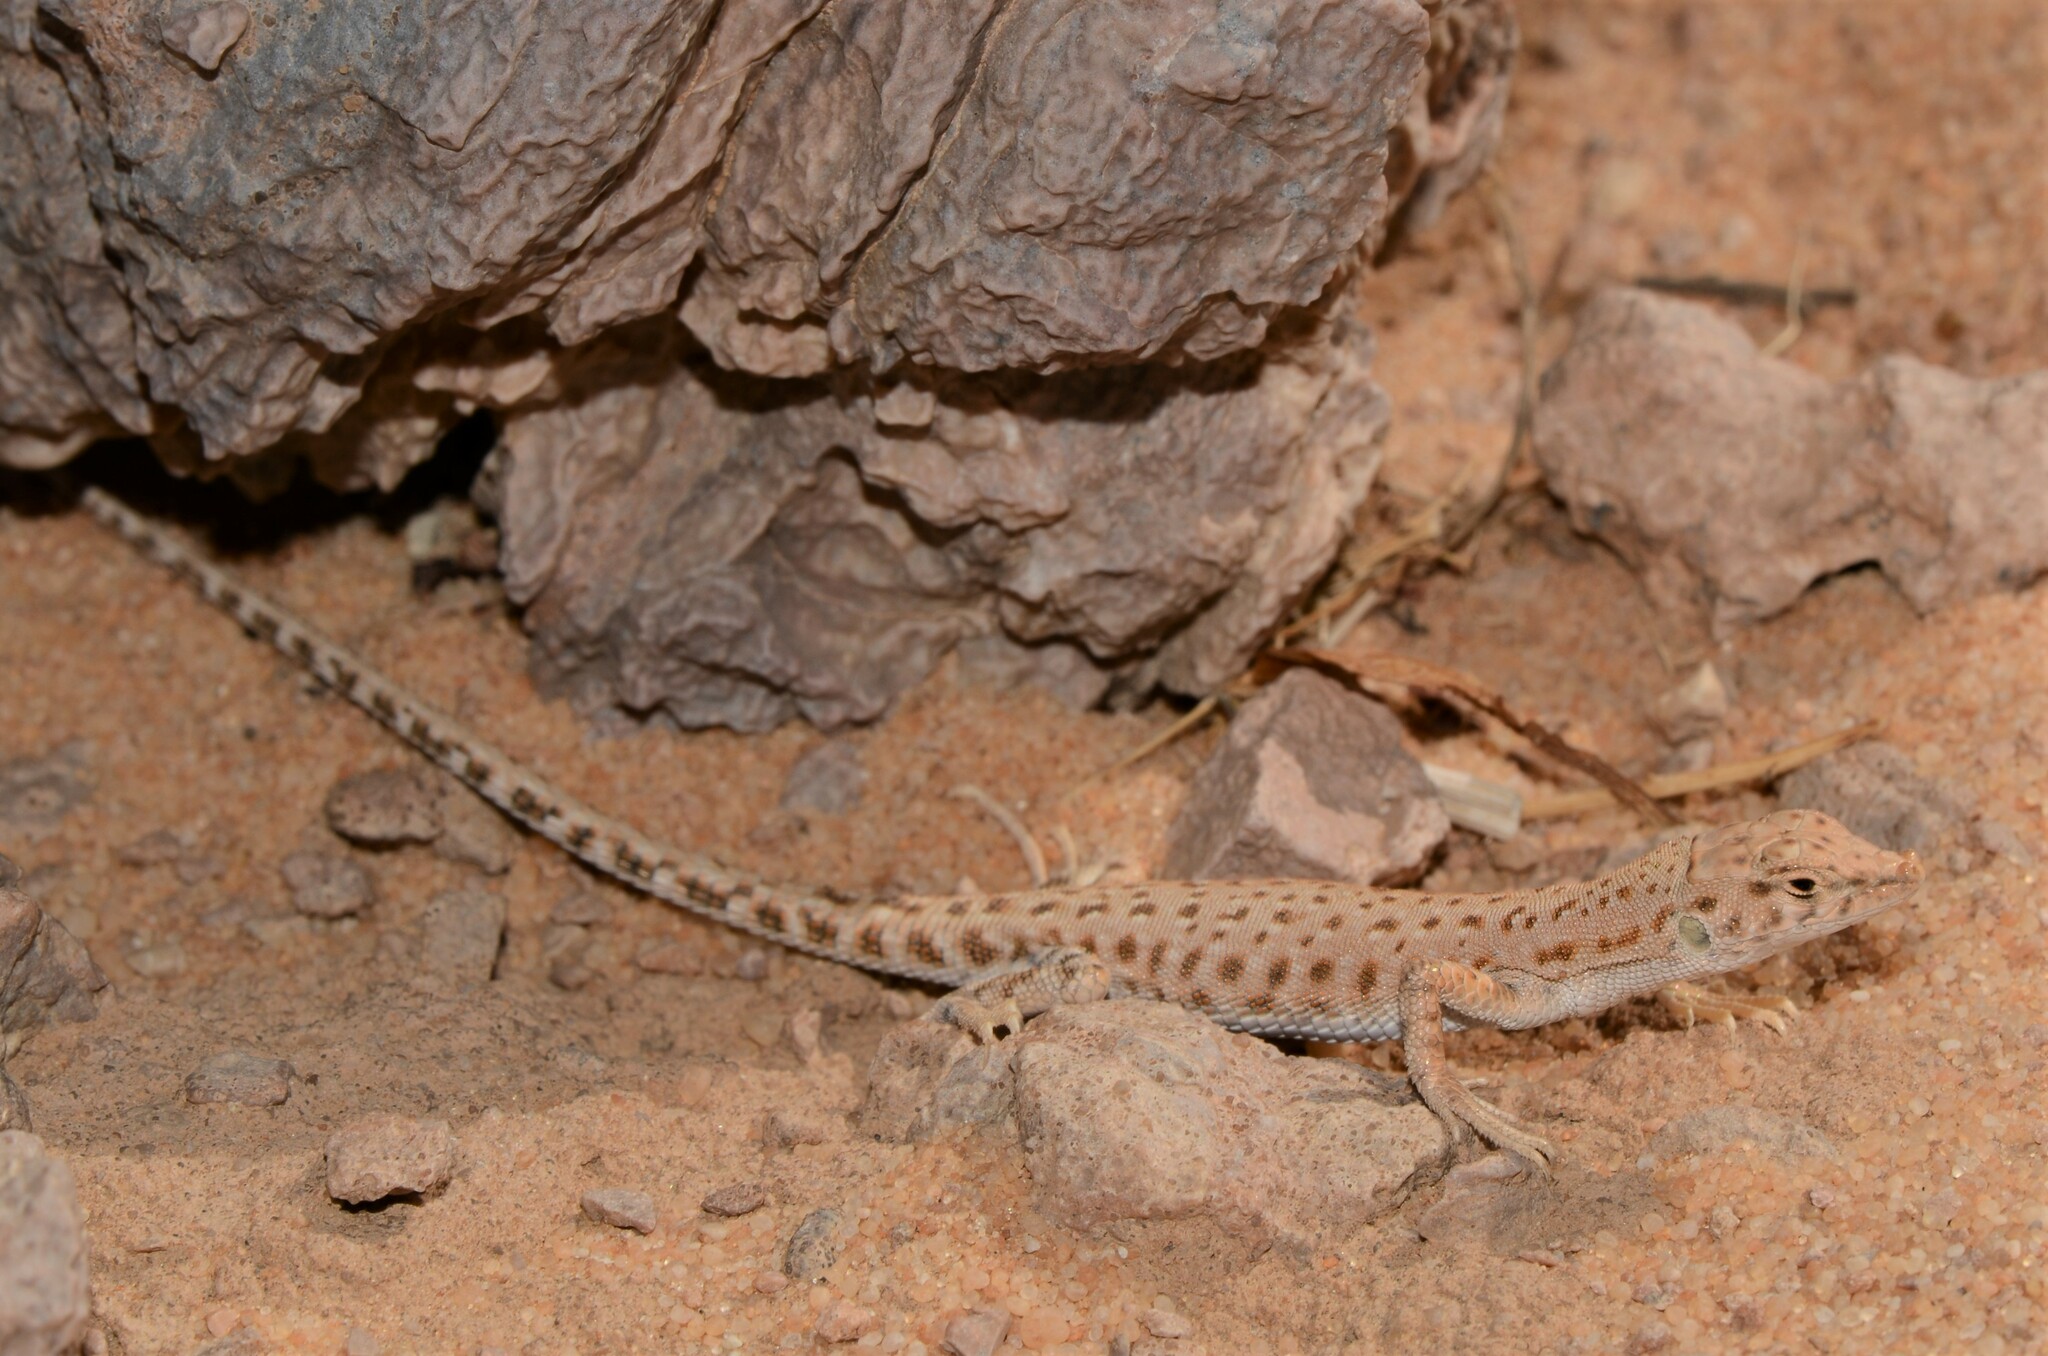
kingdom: Animalia
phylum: Chordata
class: Squamata
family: Lacertidae
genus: Mesalina
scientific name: Mesalina brevirostris
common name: Blanford's short-nosed desert lizard
